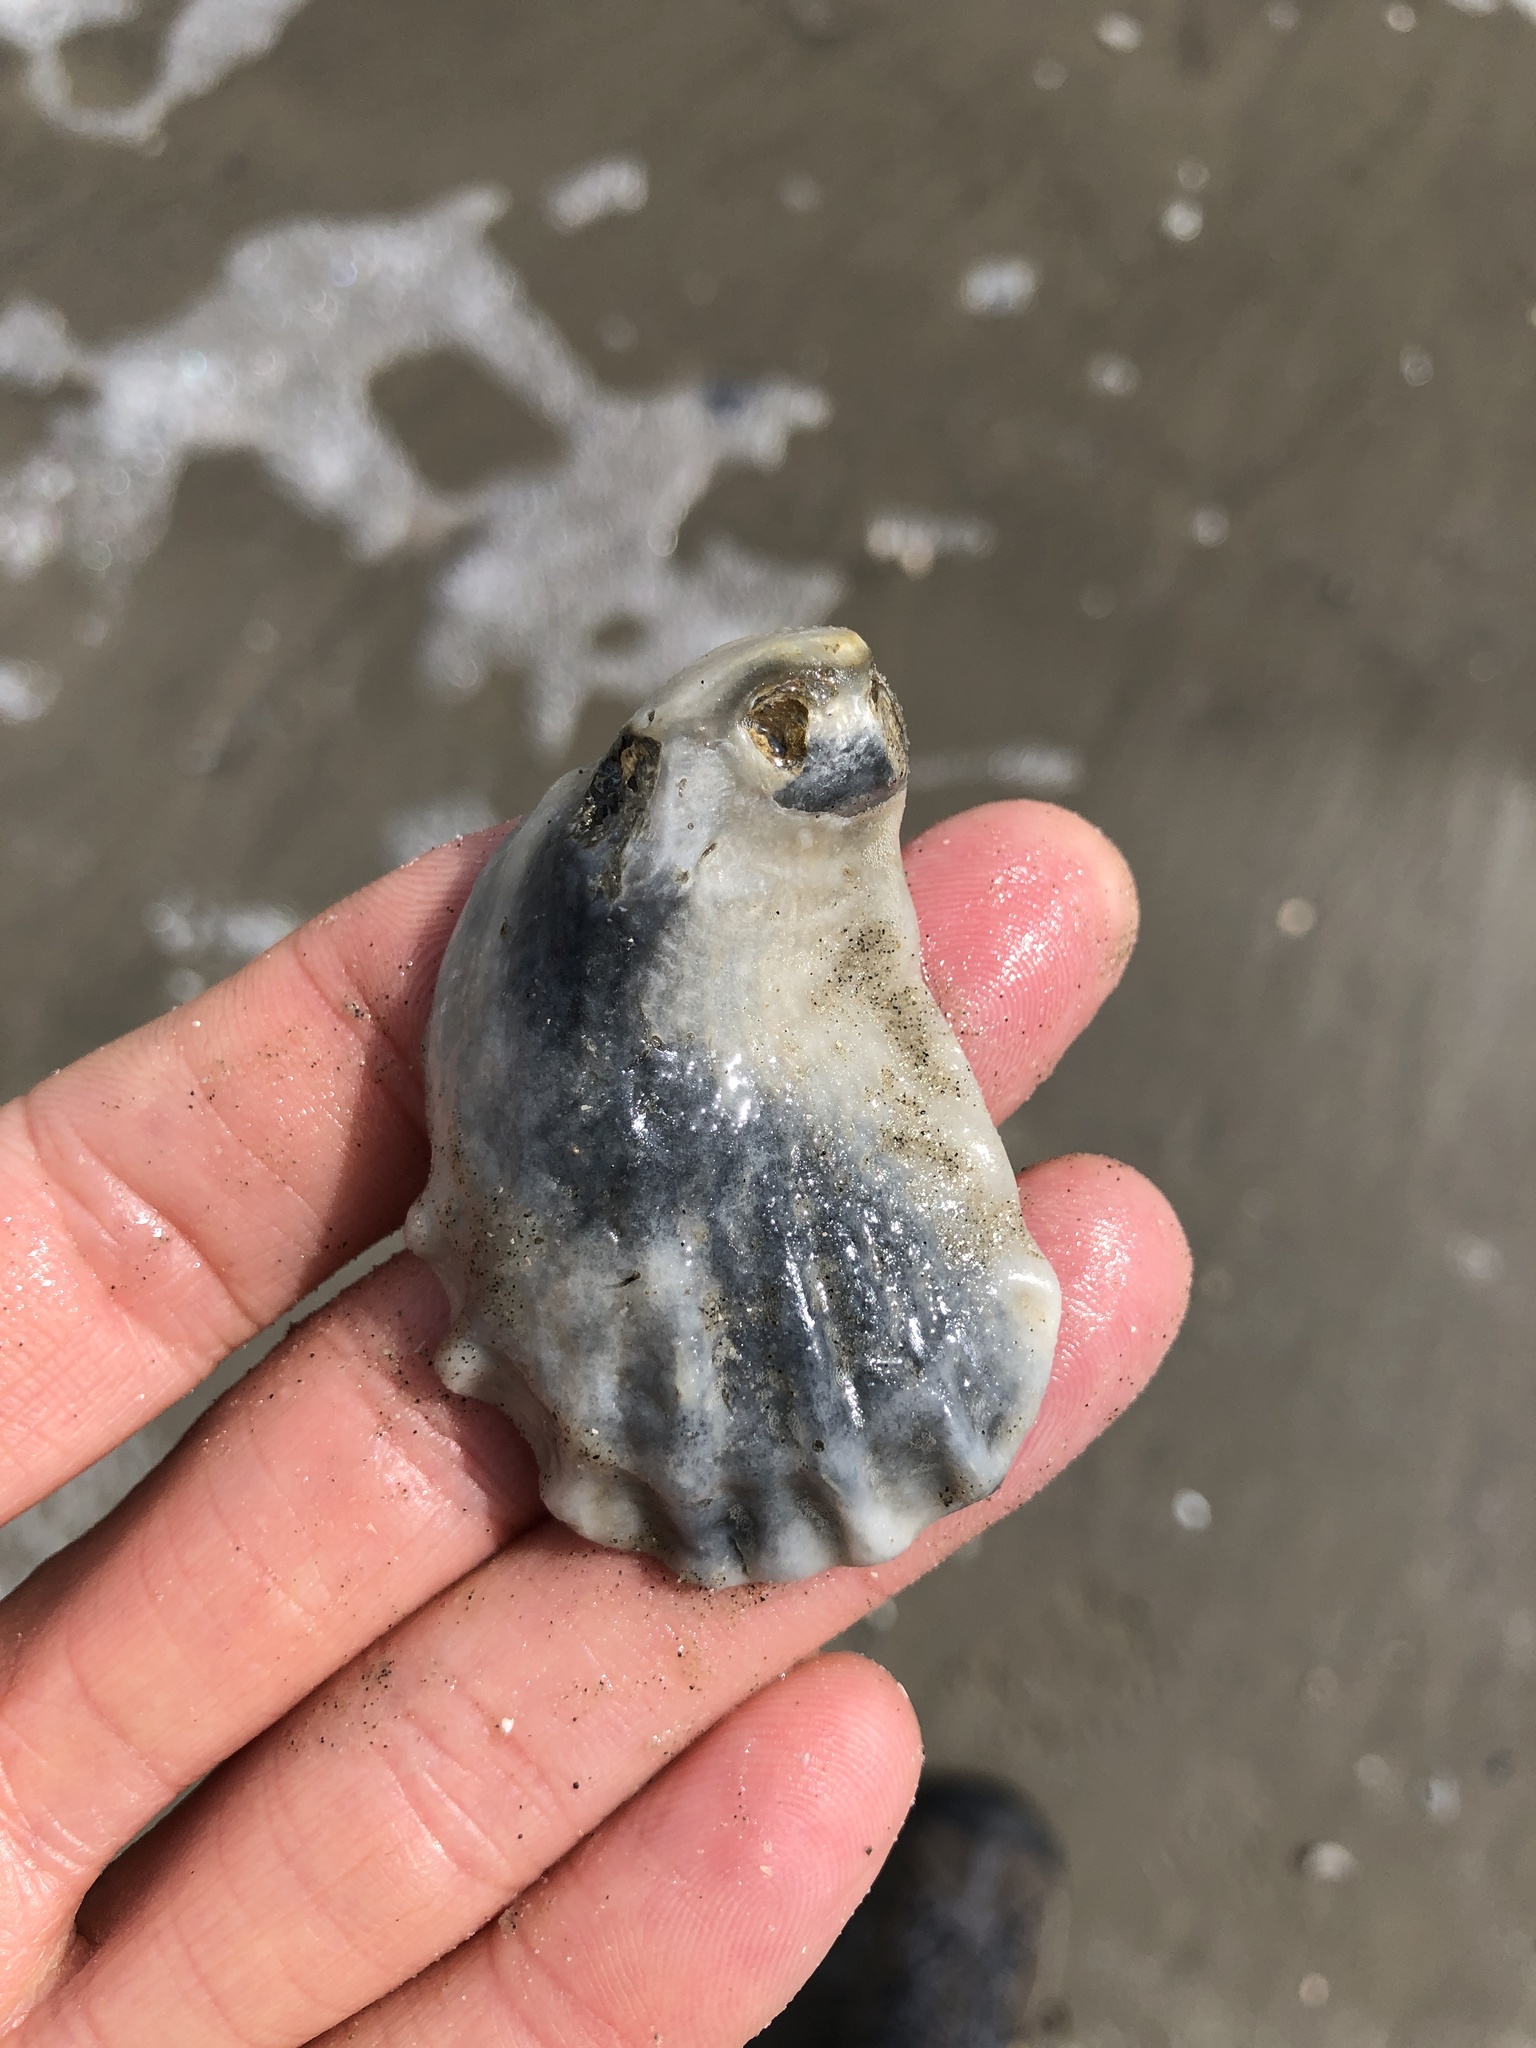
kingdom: Animalia
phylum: Mollusca
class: Bivalvia
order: Ostreida
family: Ostreidae
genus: Crassostrea
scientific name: Crassostrea virginica
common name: American oyster
